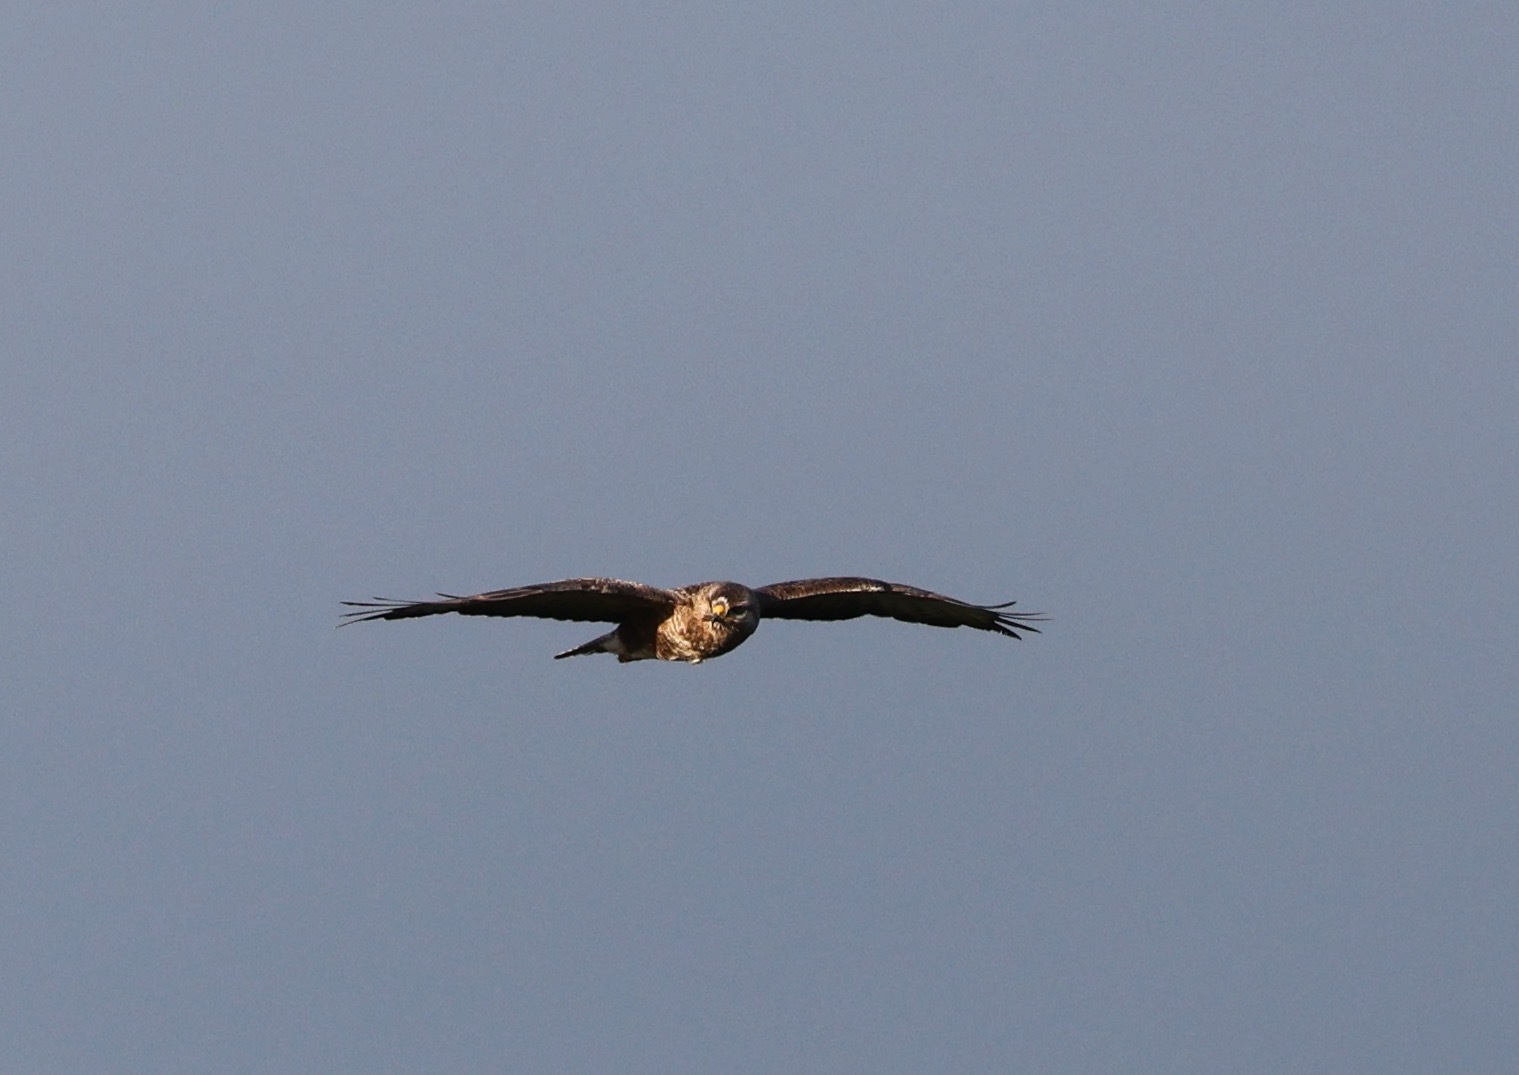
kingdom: Animalia
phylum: Chordata
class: Aves
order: Accipitriformes
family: Accipitridae
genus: Buteo
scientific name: Buteo buteo
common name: Common buzzard
